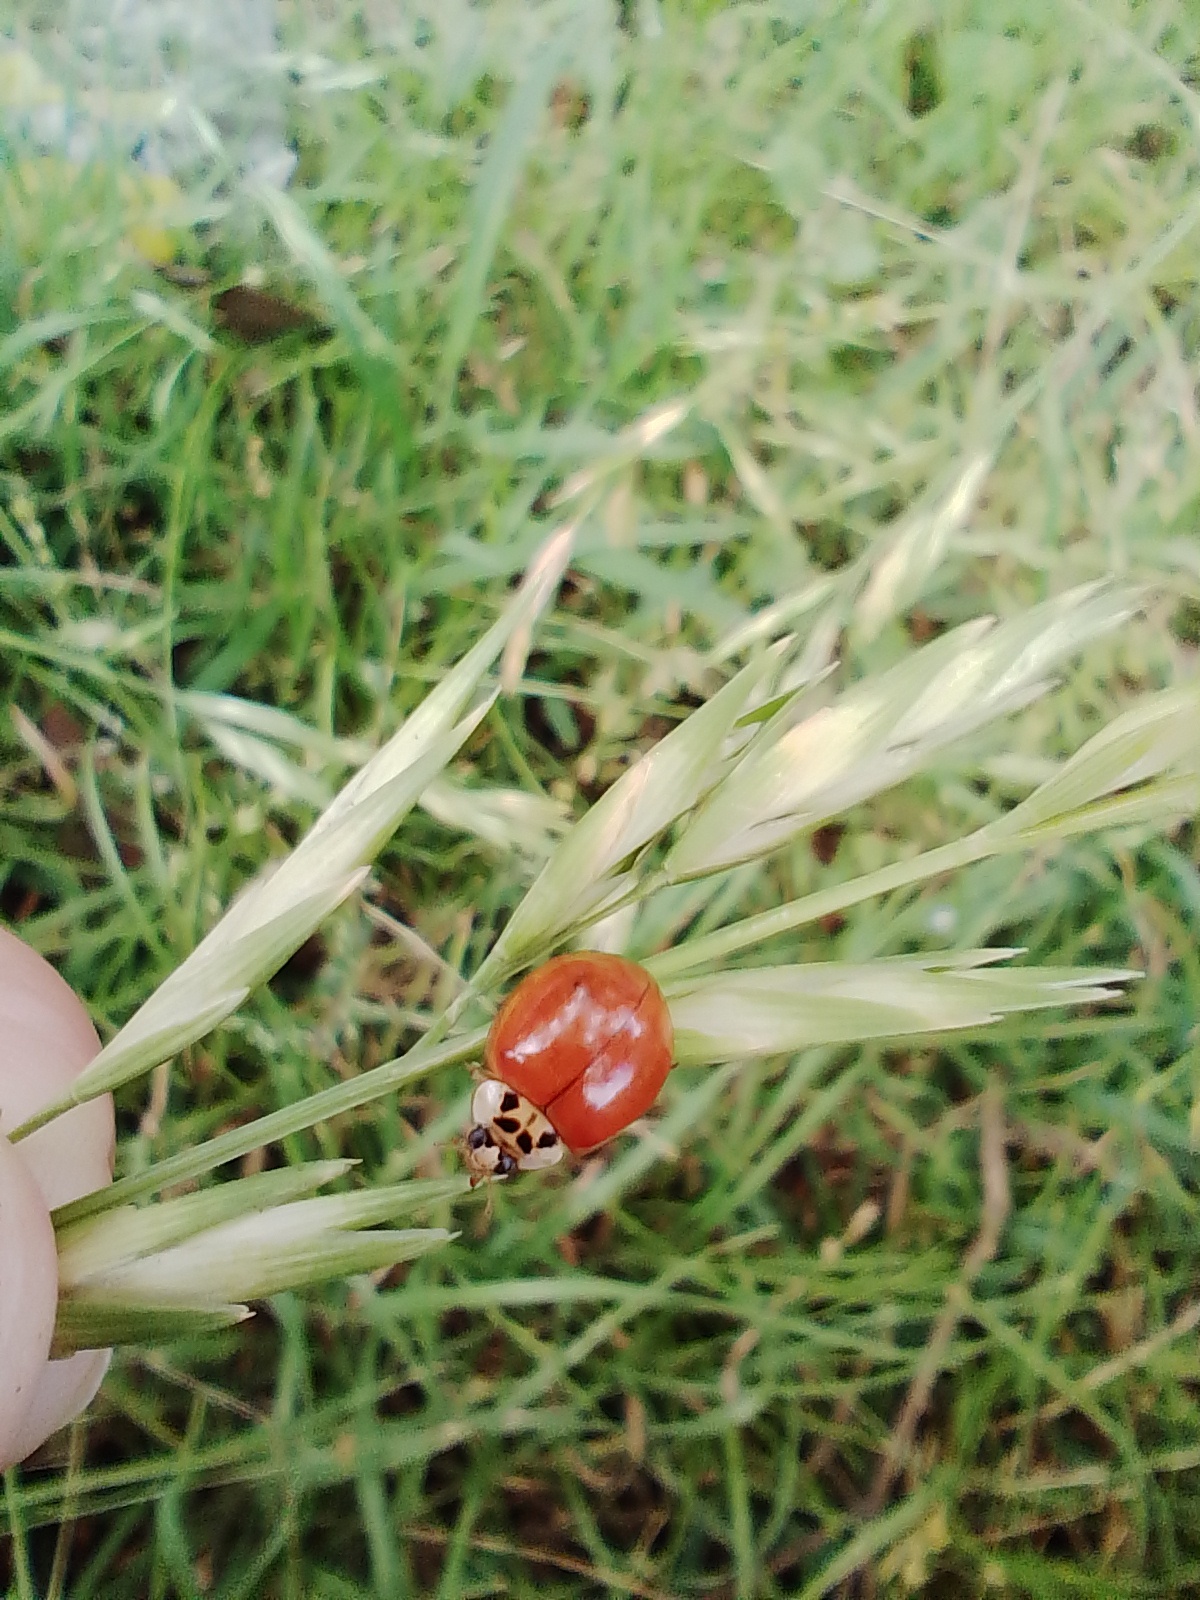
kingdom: Animalia
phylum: Arthropoda
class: Insecta
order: Coleoptera
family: Coccinellidae
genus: Harmonia
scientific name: Harmonia axyridis
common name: Harlequin ladybird
